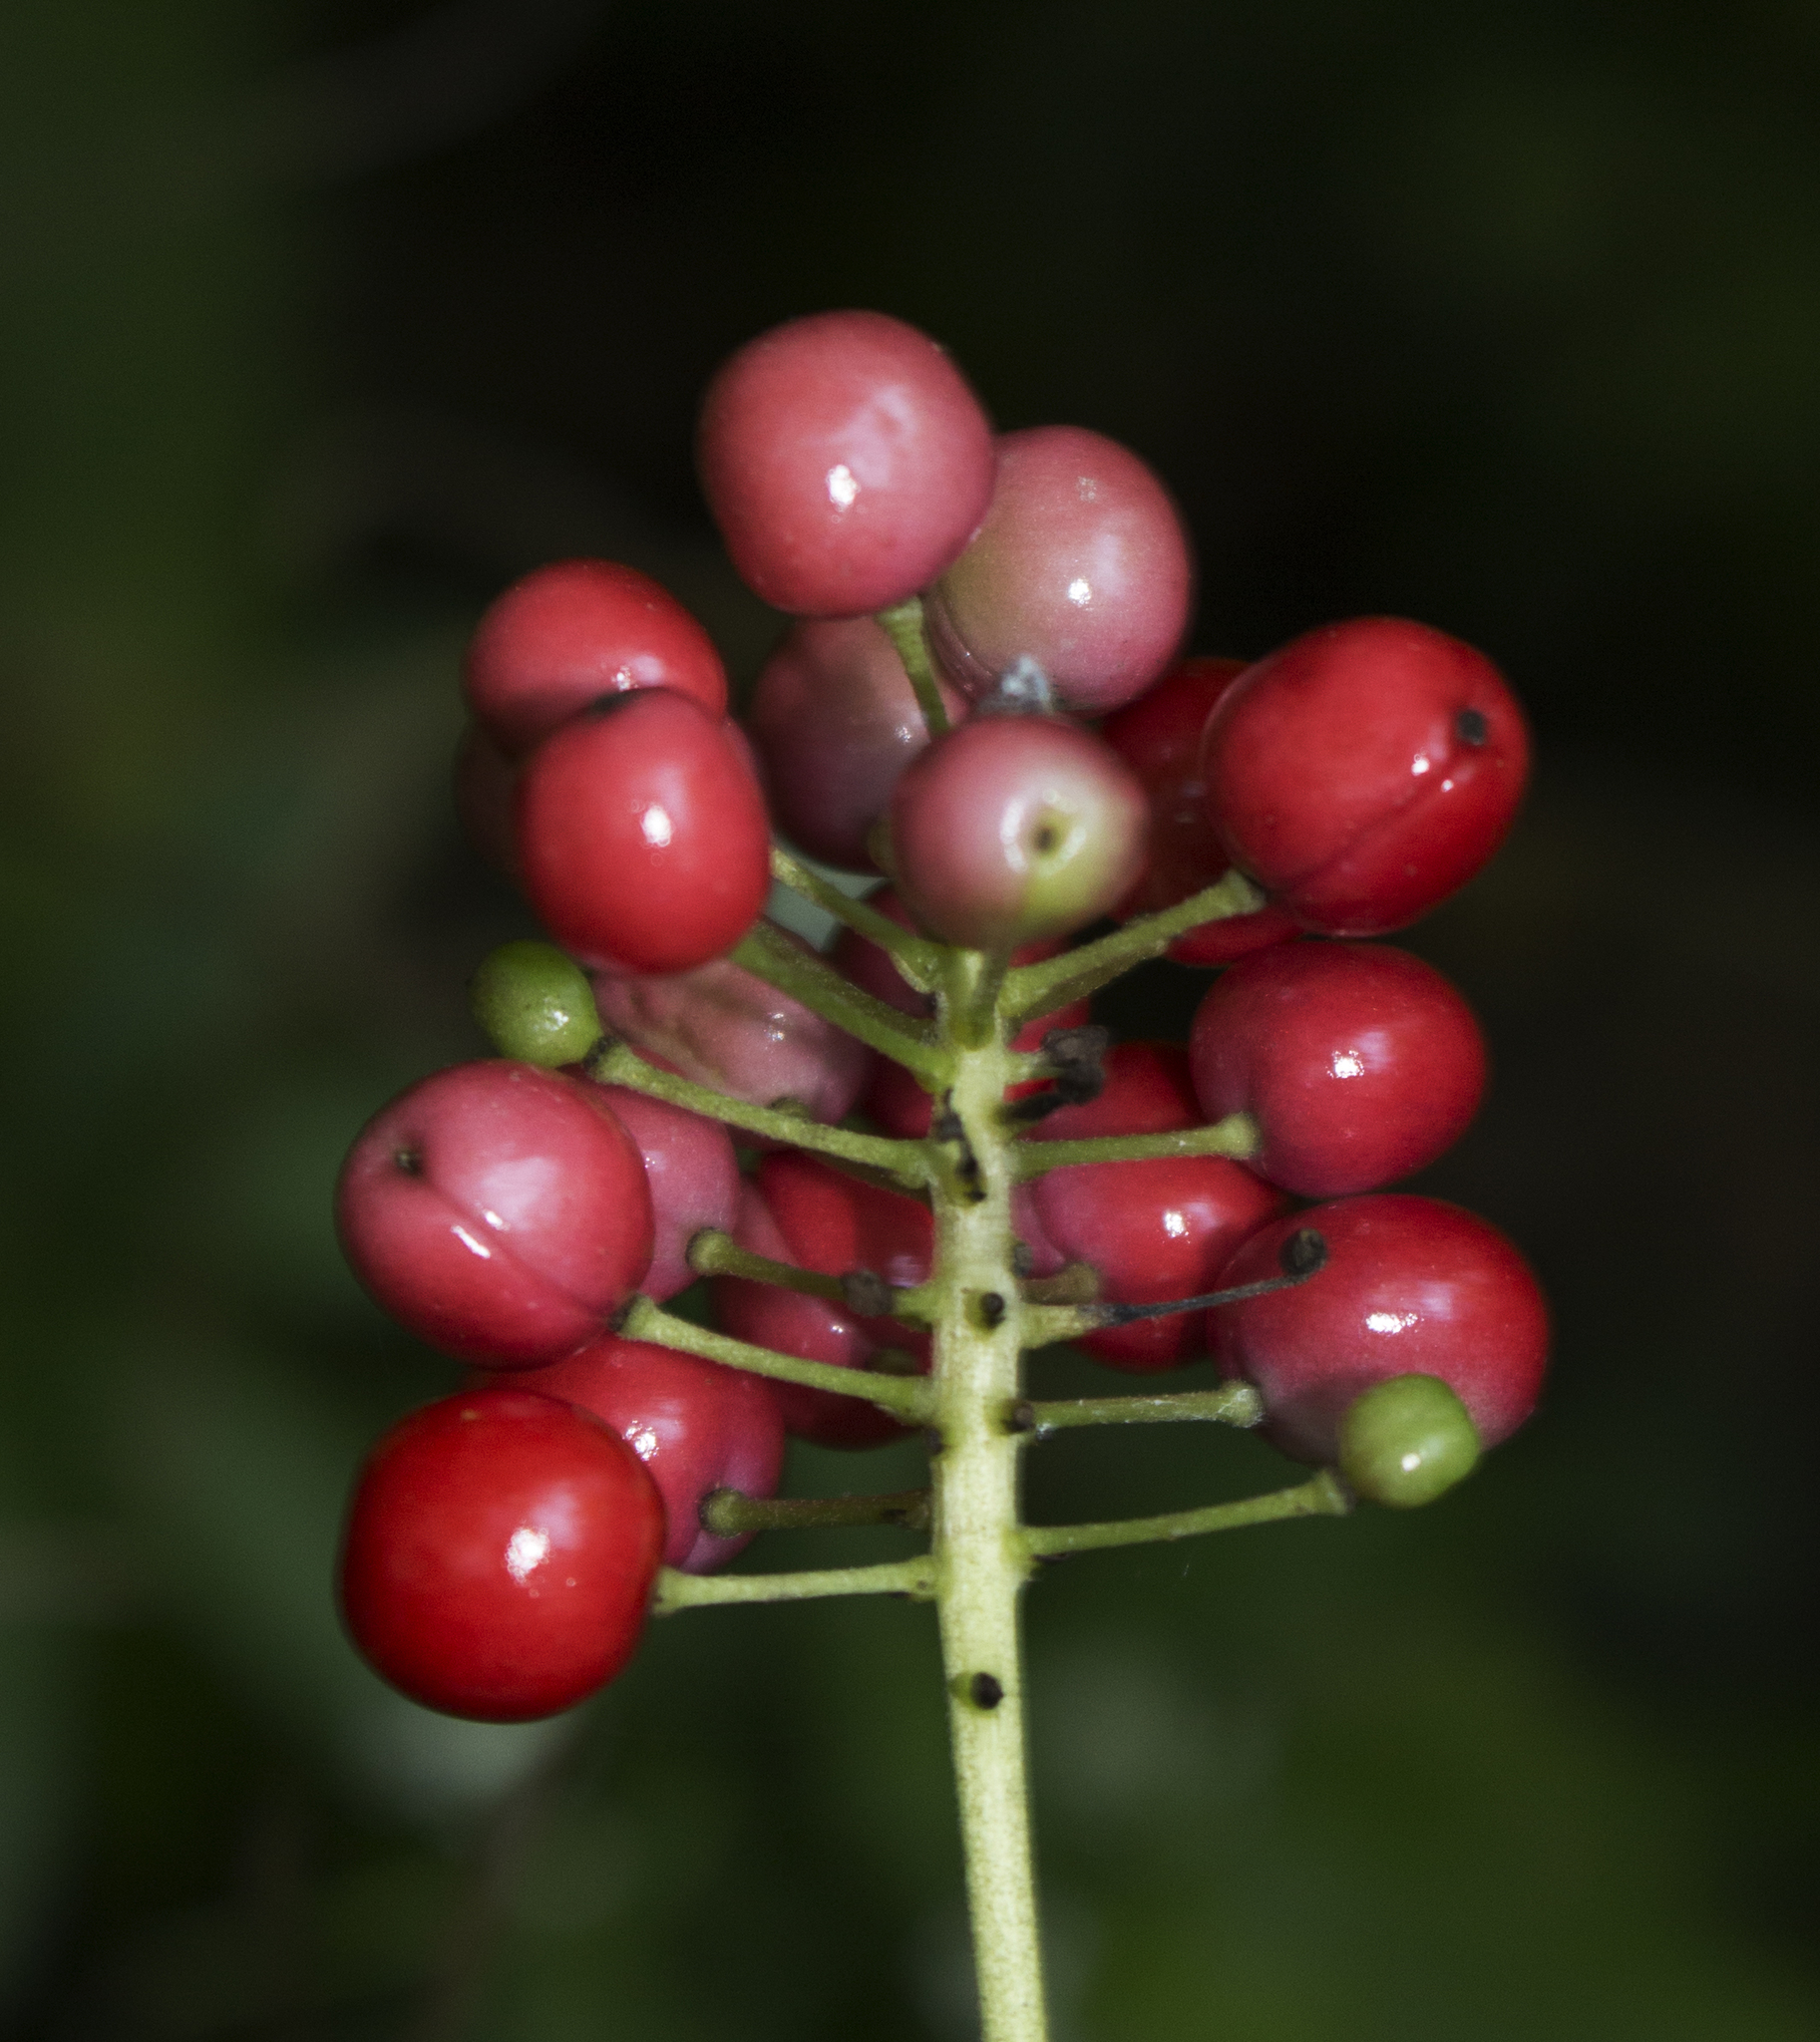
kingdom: Plantae
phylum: Tracheophyta
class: Magnoliopsida
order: Ranunculales
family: Ranunculaceae
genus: Actaea
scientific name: Actaea rubra
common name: Red baneberry
